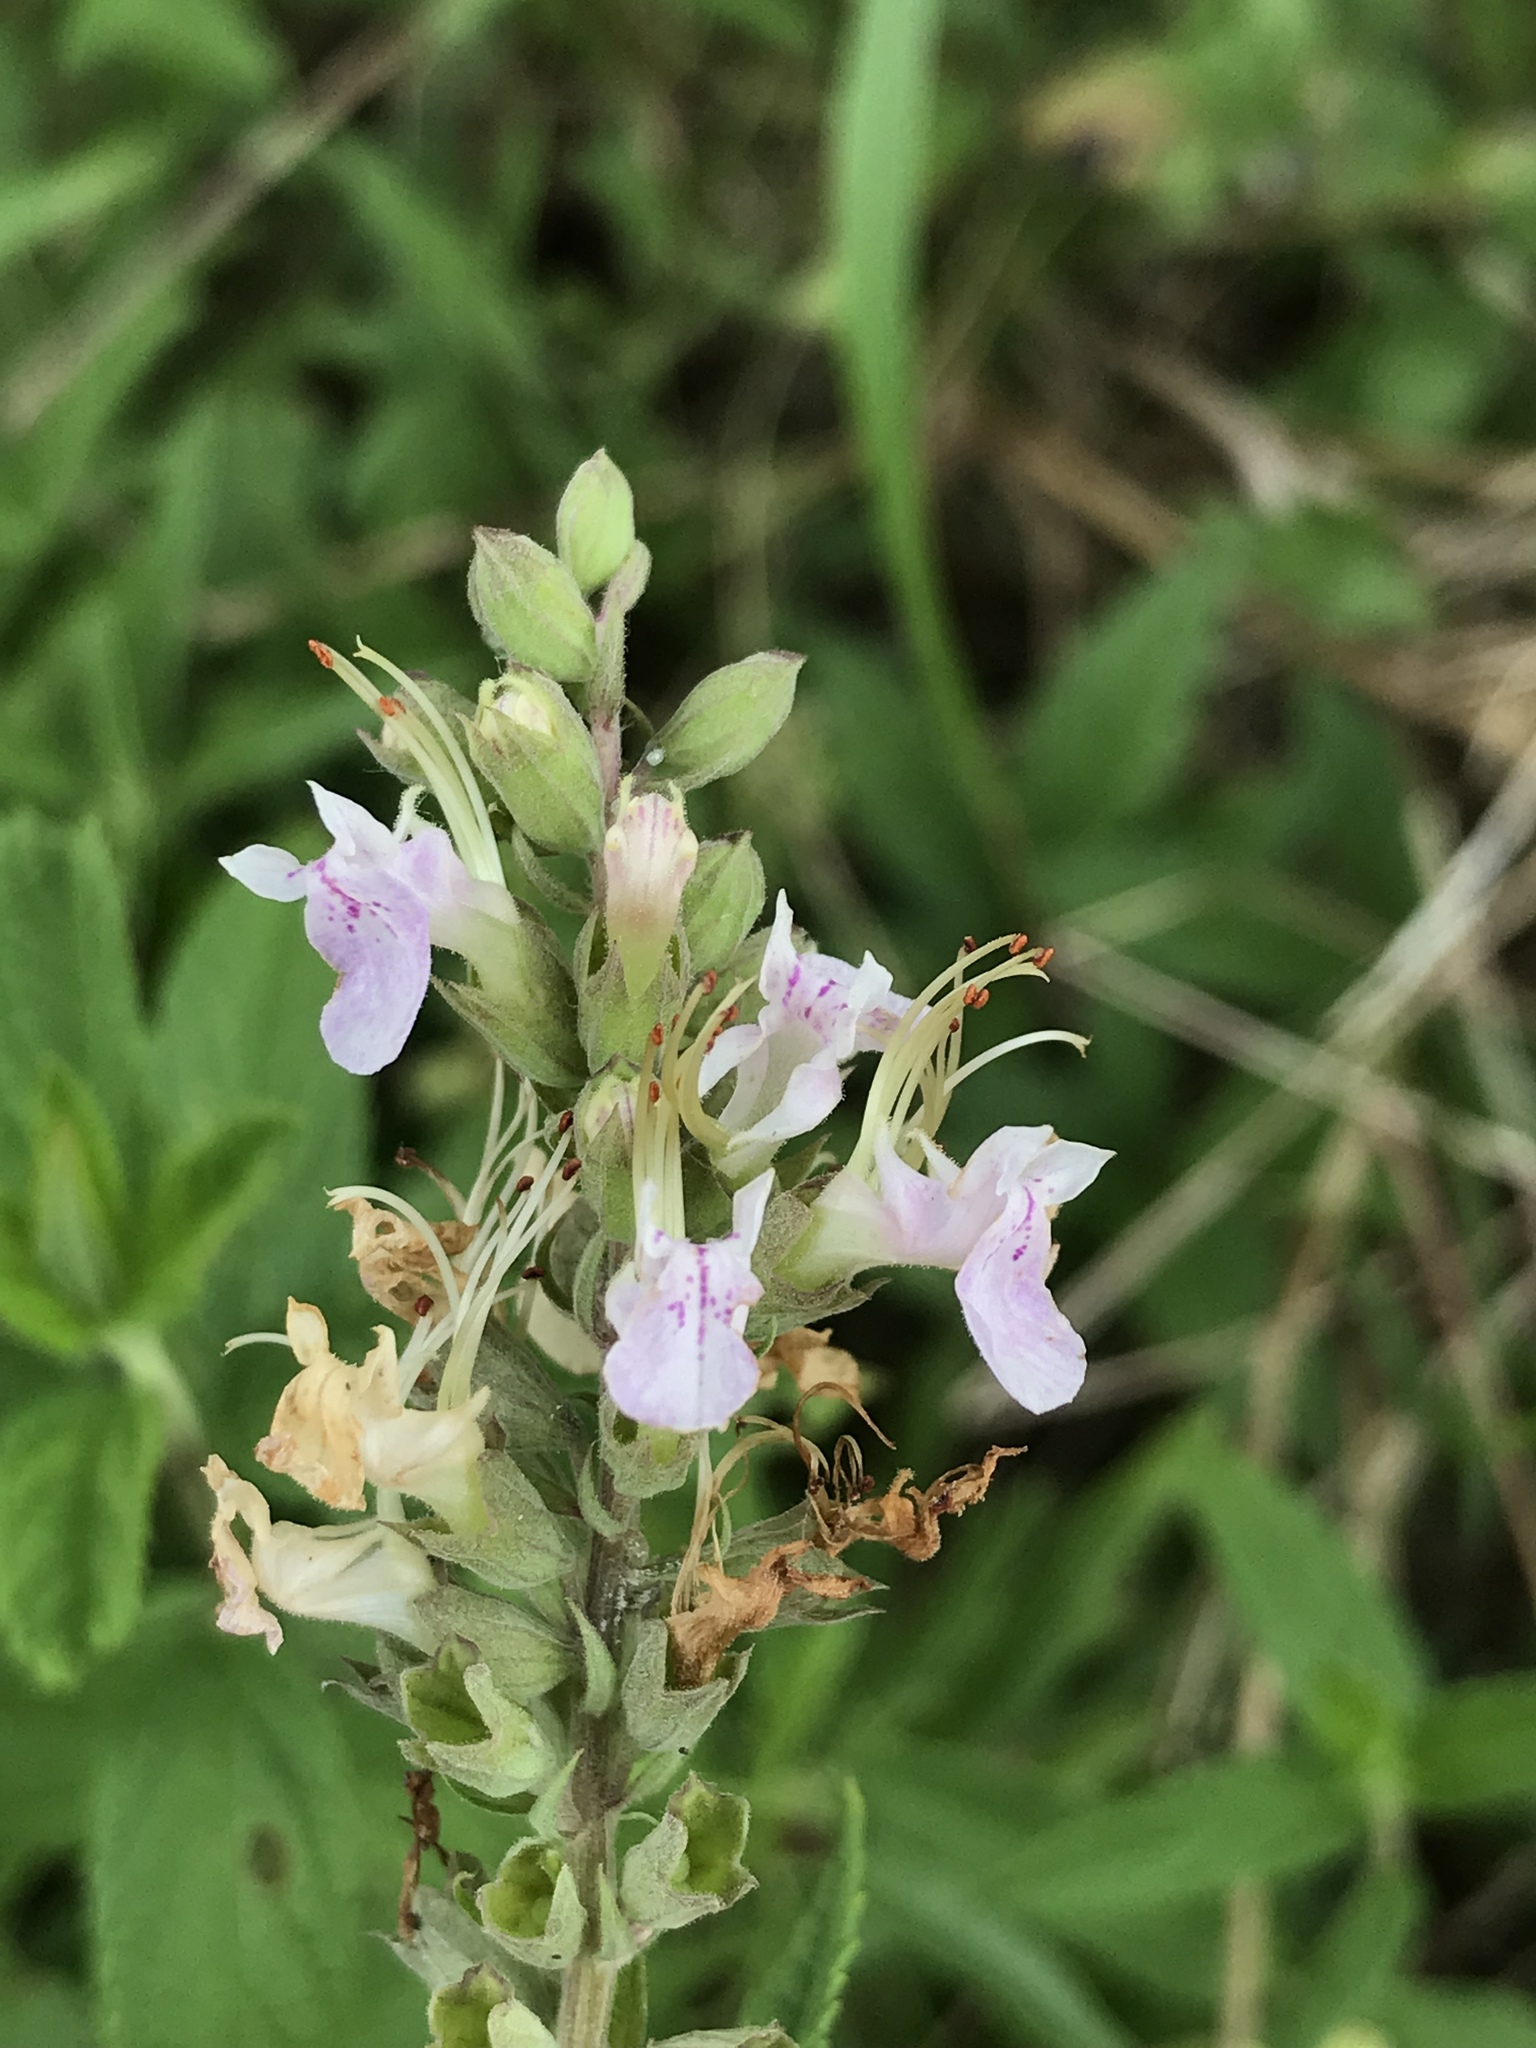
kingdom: Plantae
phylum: Tracheophyta
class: Magnoliopsida
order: Lamiales
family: Lamiaceae
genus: Teucrium
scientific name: Teucrium canadense
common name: American germander
